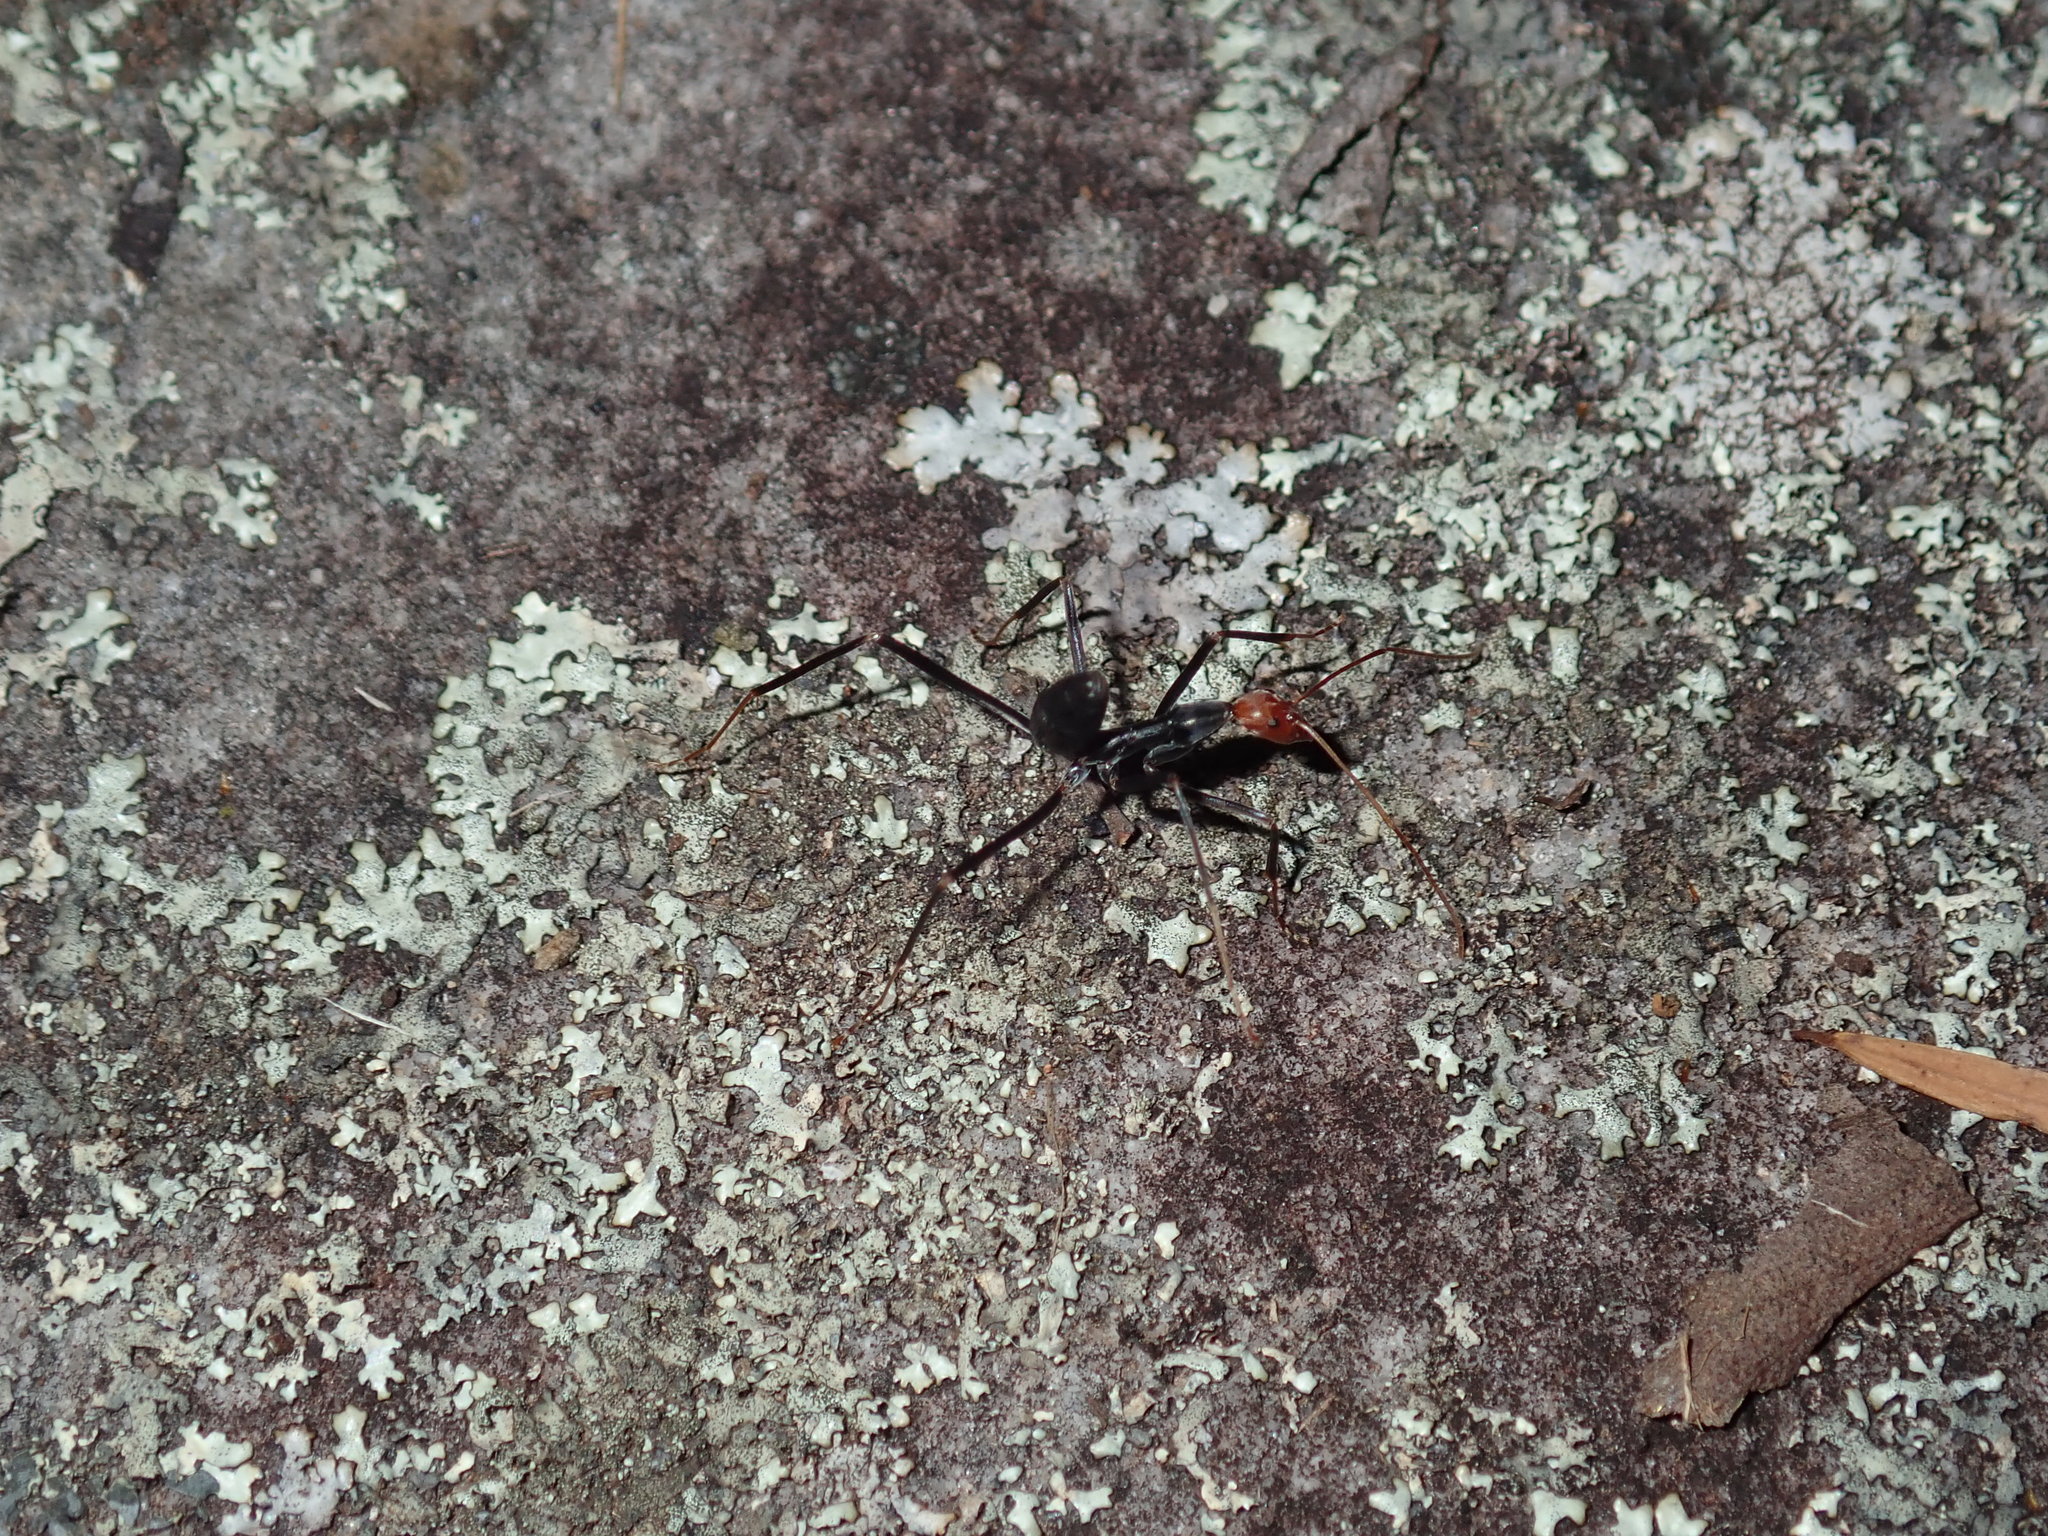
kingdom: Animalia
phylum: Arthropoda
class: Insecta
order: Hymenoptera
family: Formicidae
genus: Leptomyrmex
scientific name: Leptomyrmex erythrocephalus
